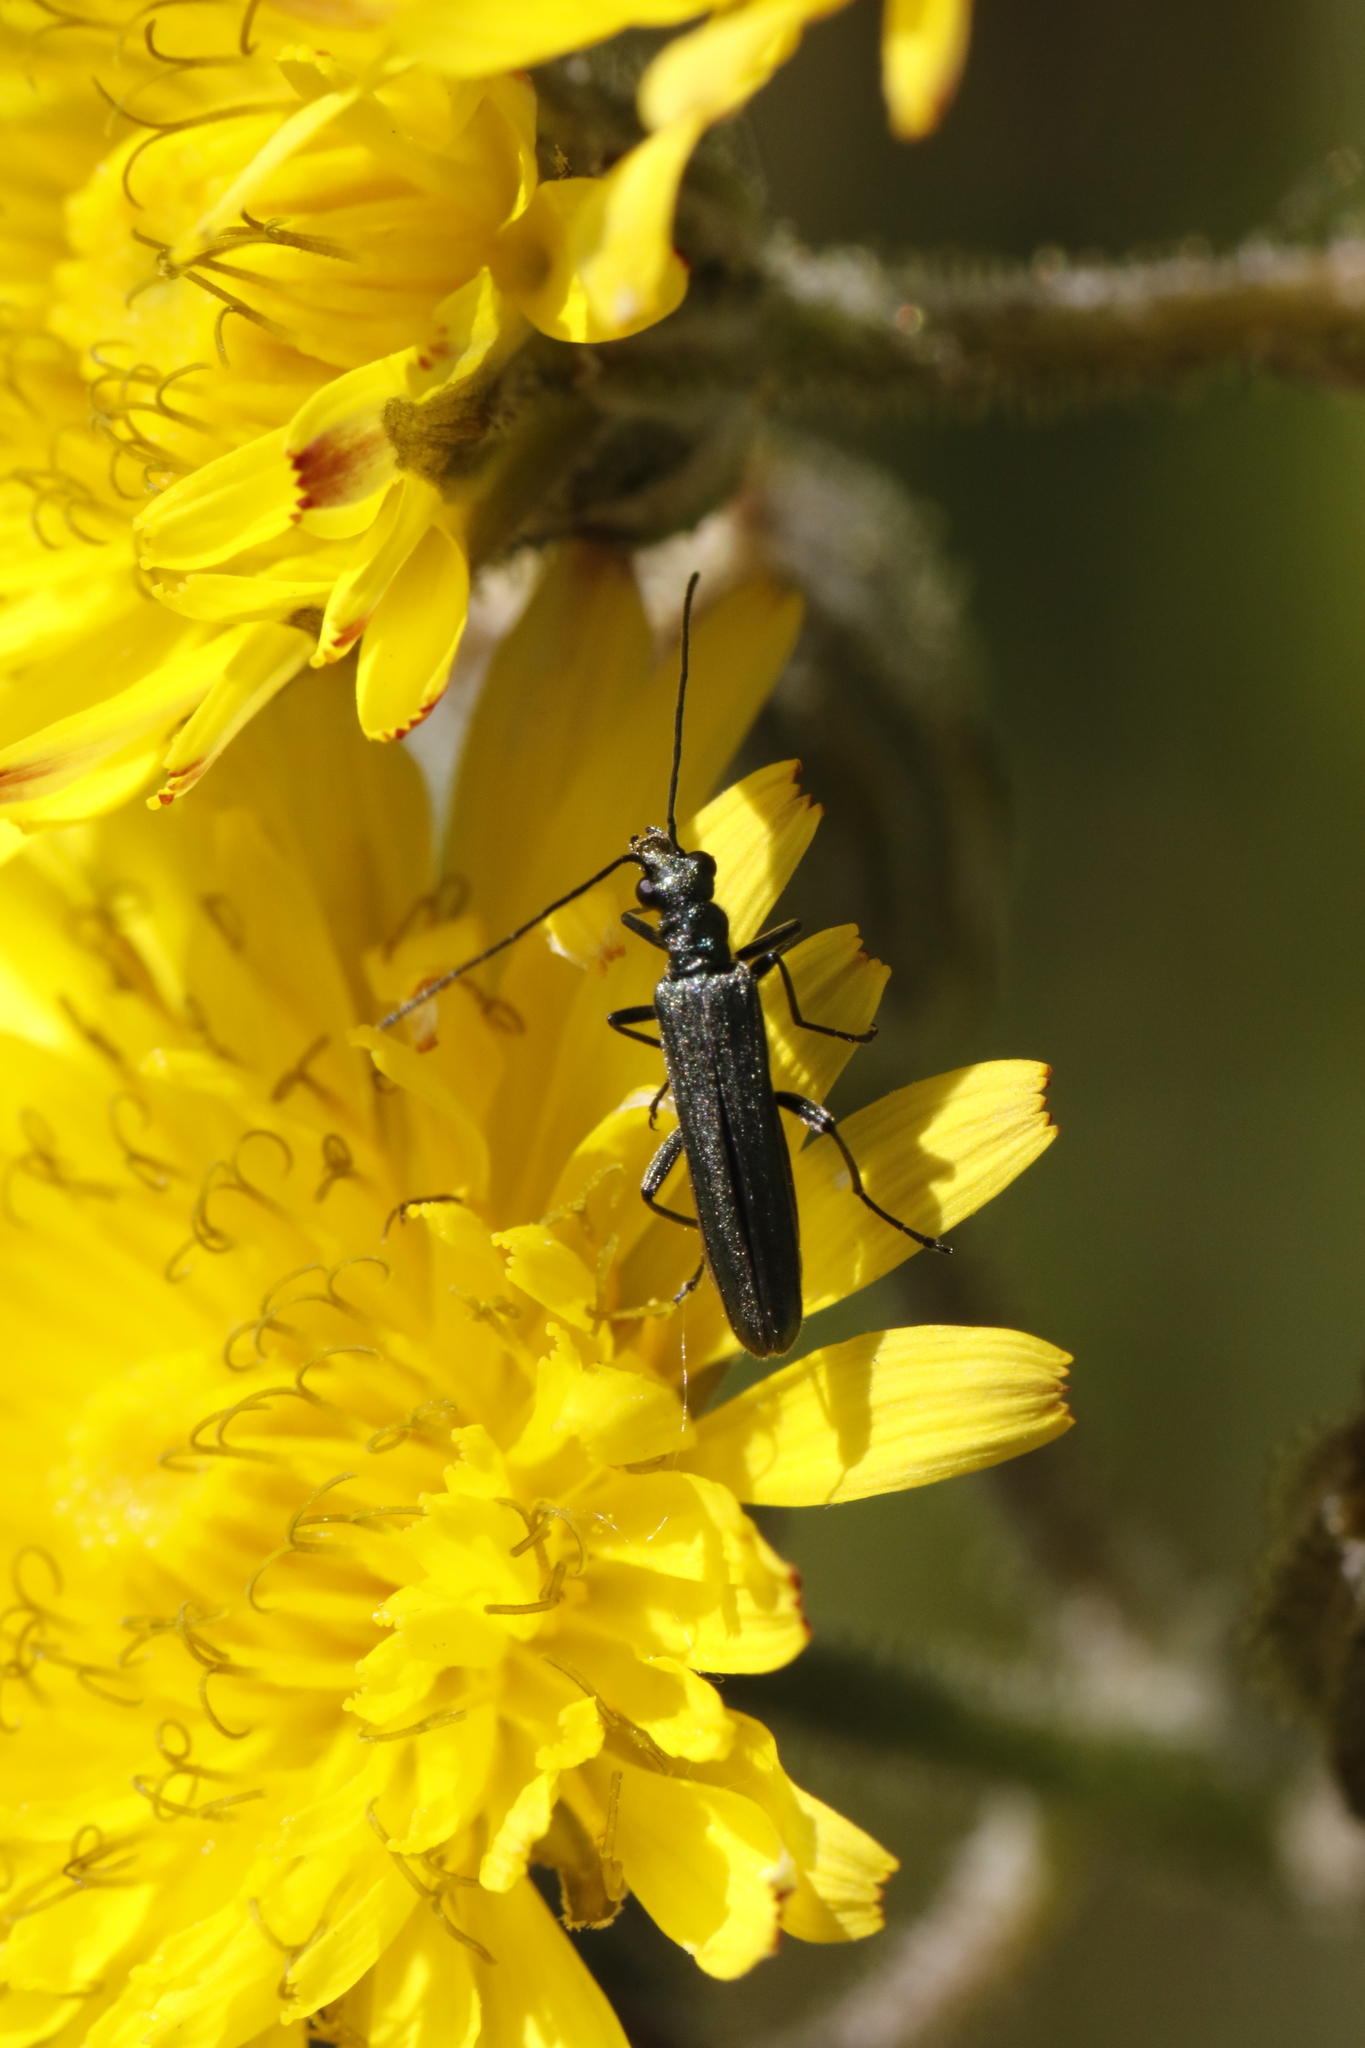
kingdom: Animalia
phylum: Arthropoda
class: Insecta
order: Coleoptera
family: Oedemeridae
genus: Oedemera
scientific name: Oedemera lurida
